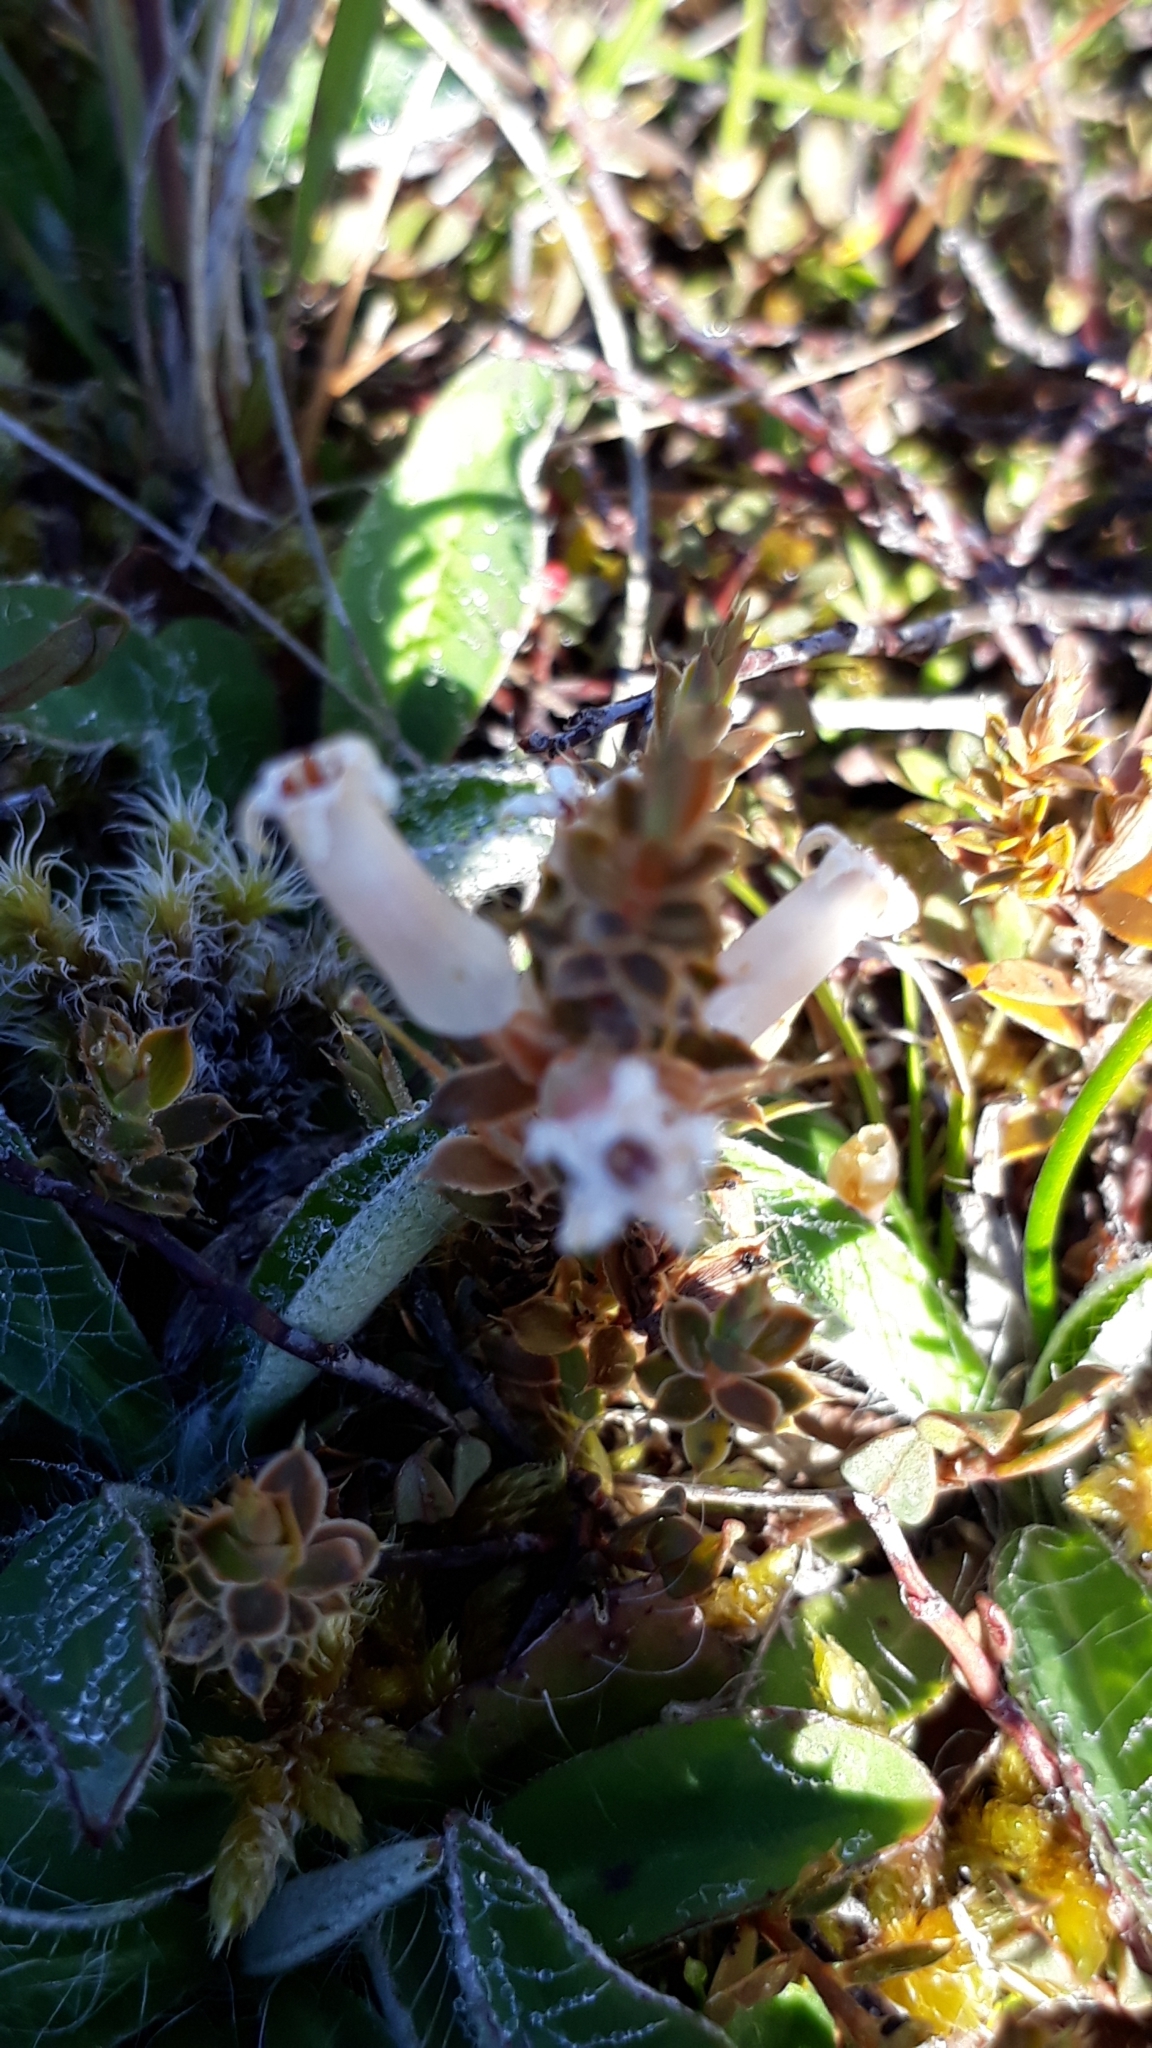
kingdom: Plantae
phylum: Tracheophyta
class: Magnoliopsida
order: Ericales
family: Ericaceae
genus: Styphelia
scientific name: Styphelia nesophila
